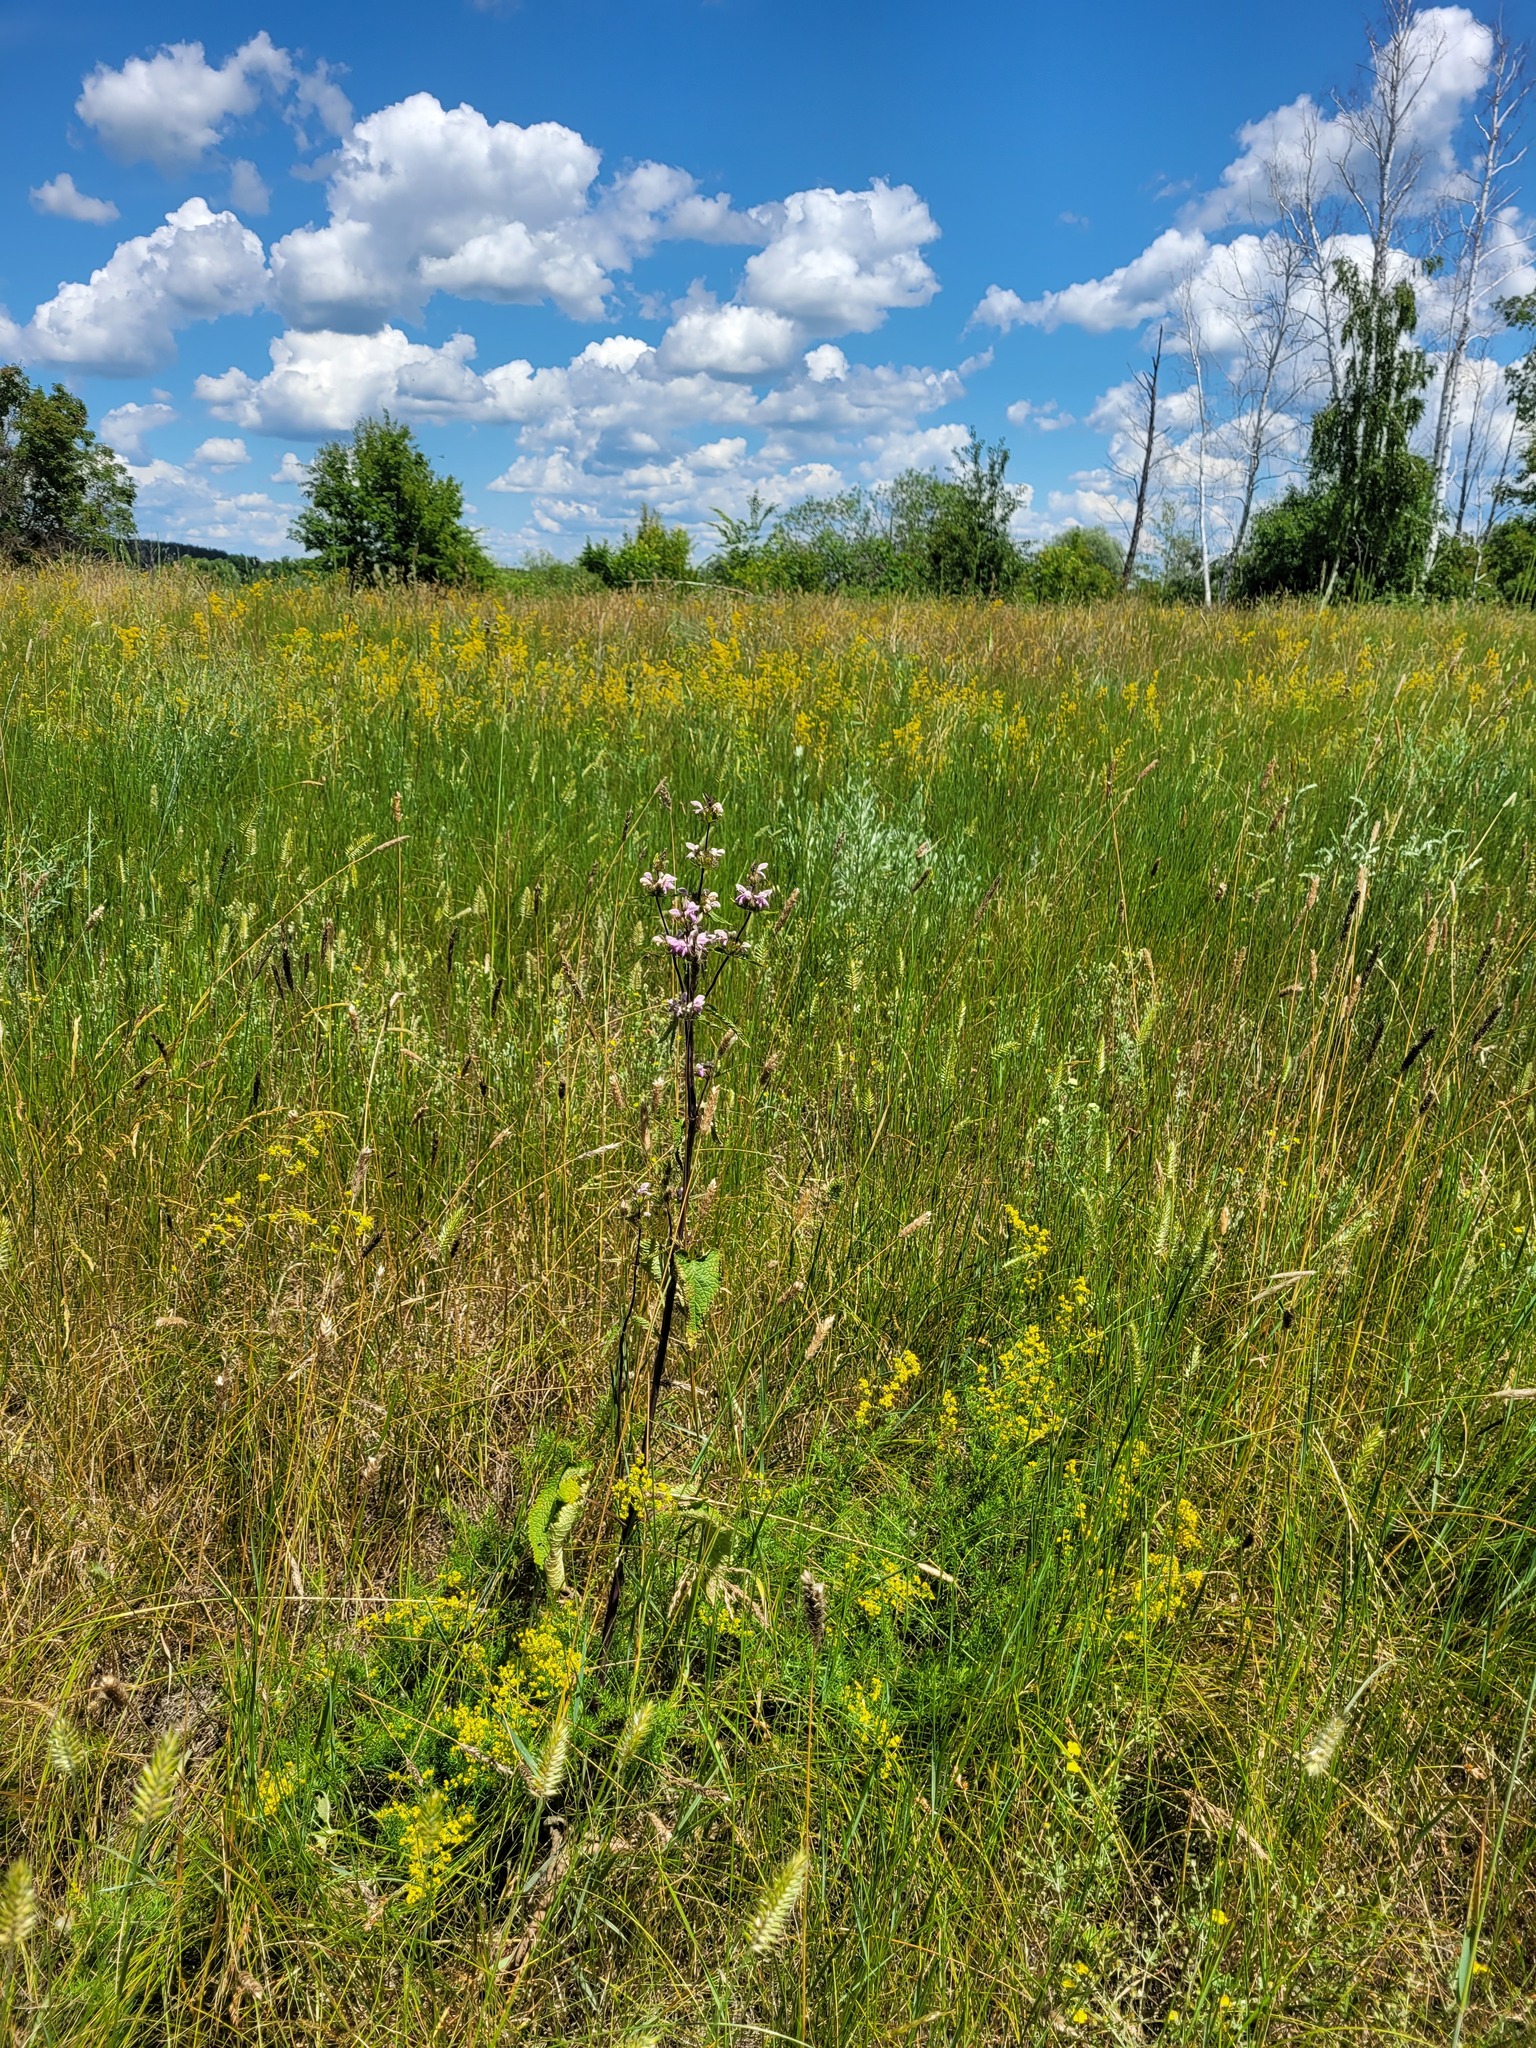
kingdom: Plantae
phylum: Tracheophyta
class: Magnoliopsida
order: Lamiales
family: Lamiaceae
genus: Phlomoides
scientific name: Phlomoides tuberosa
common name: Tuberous jerusalem sage
